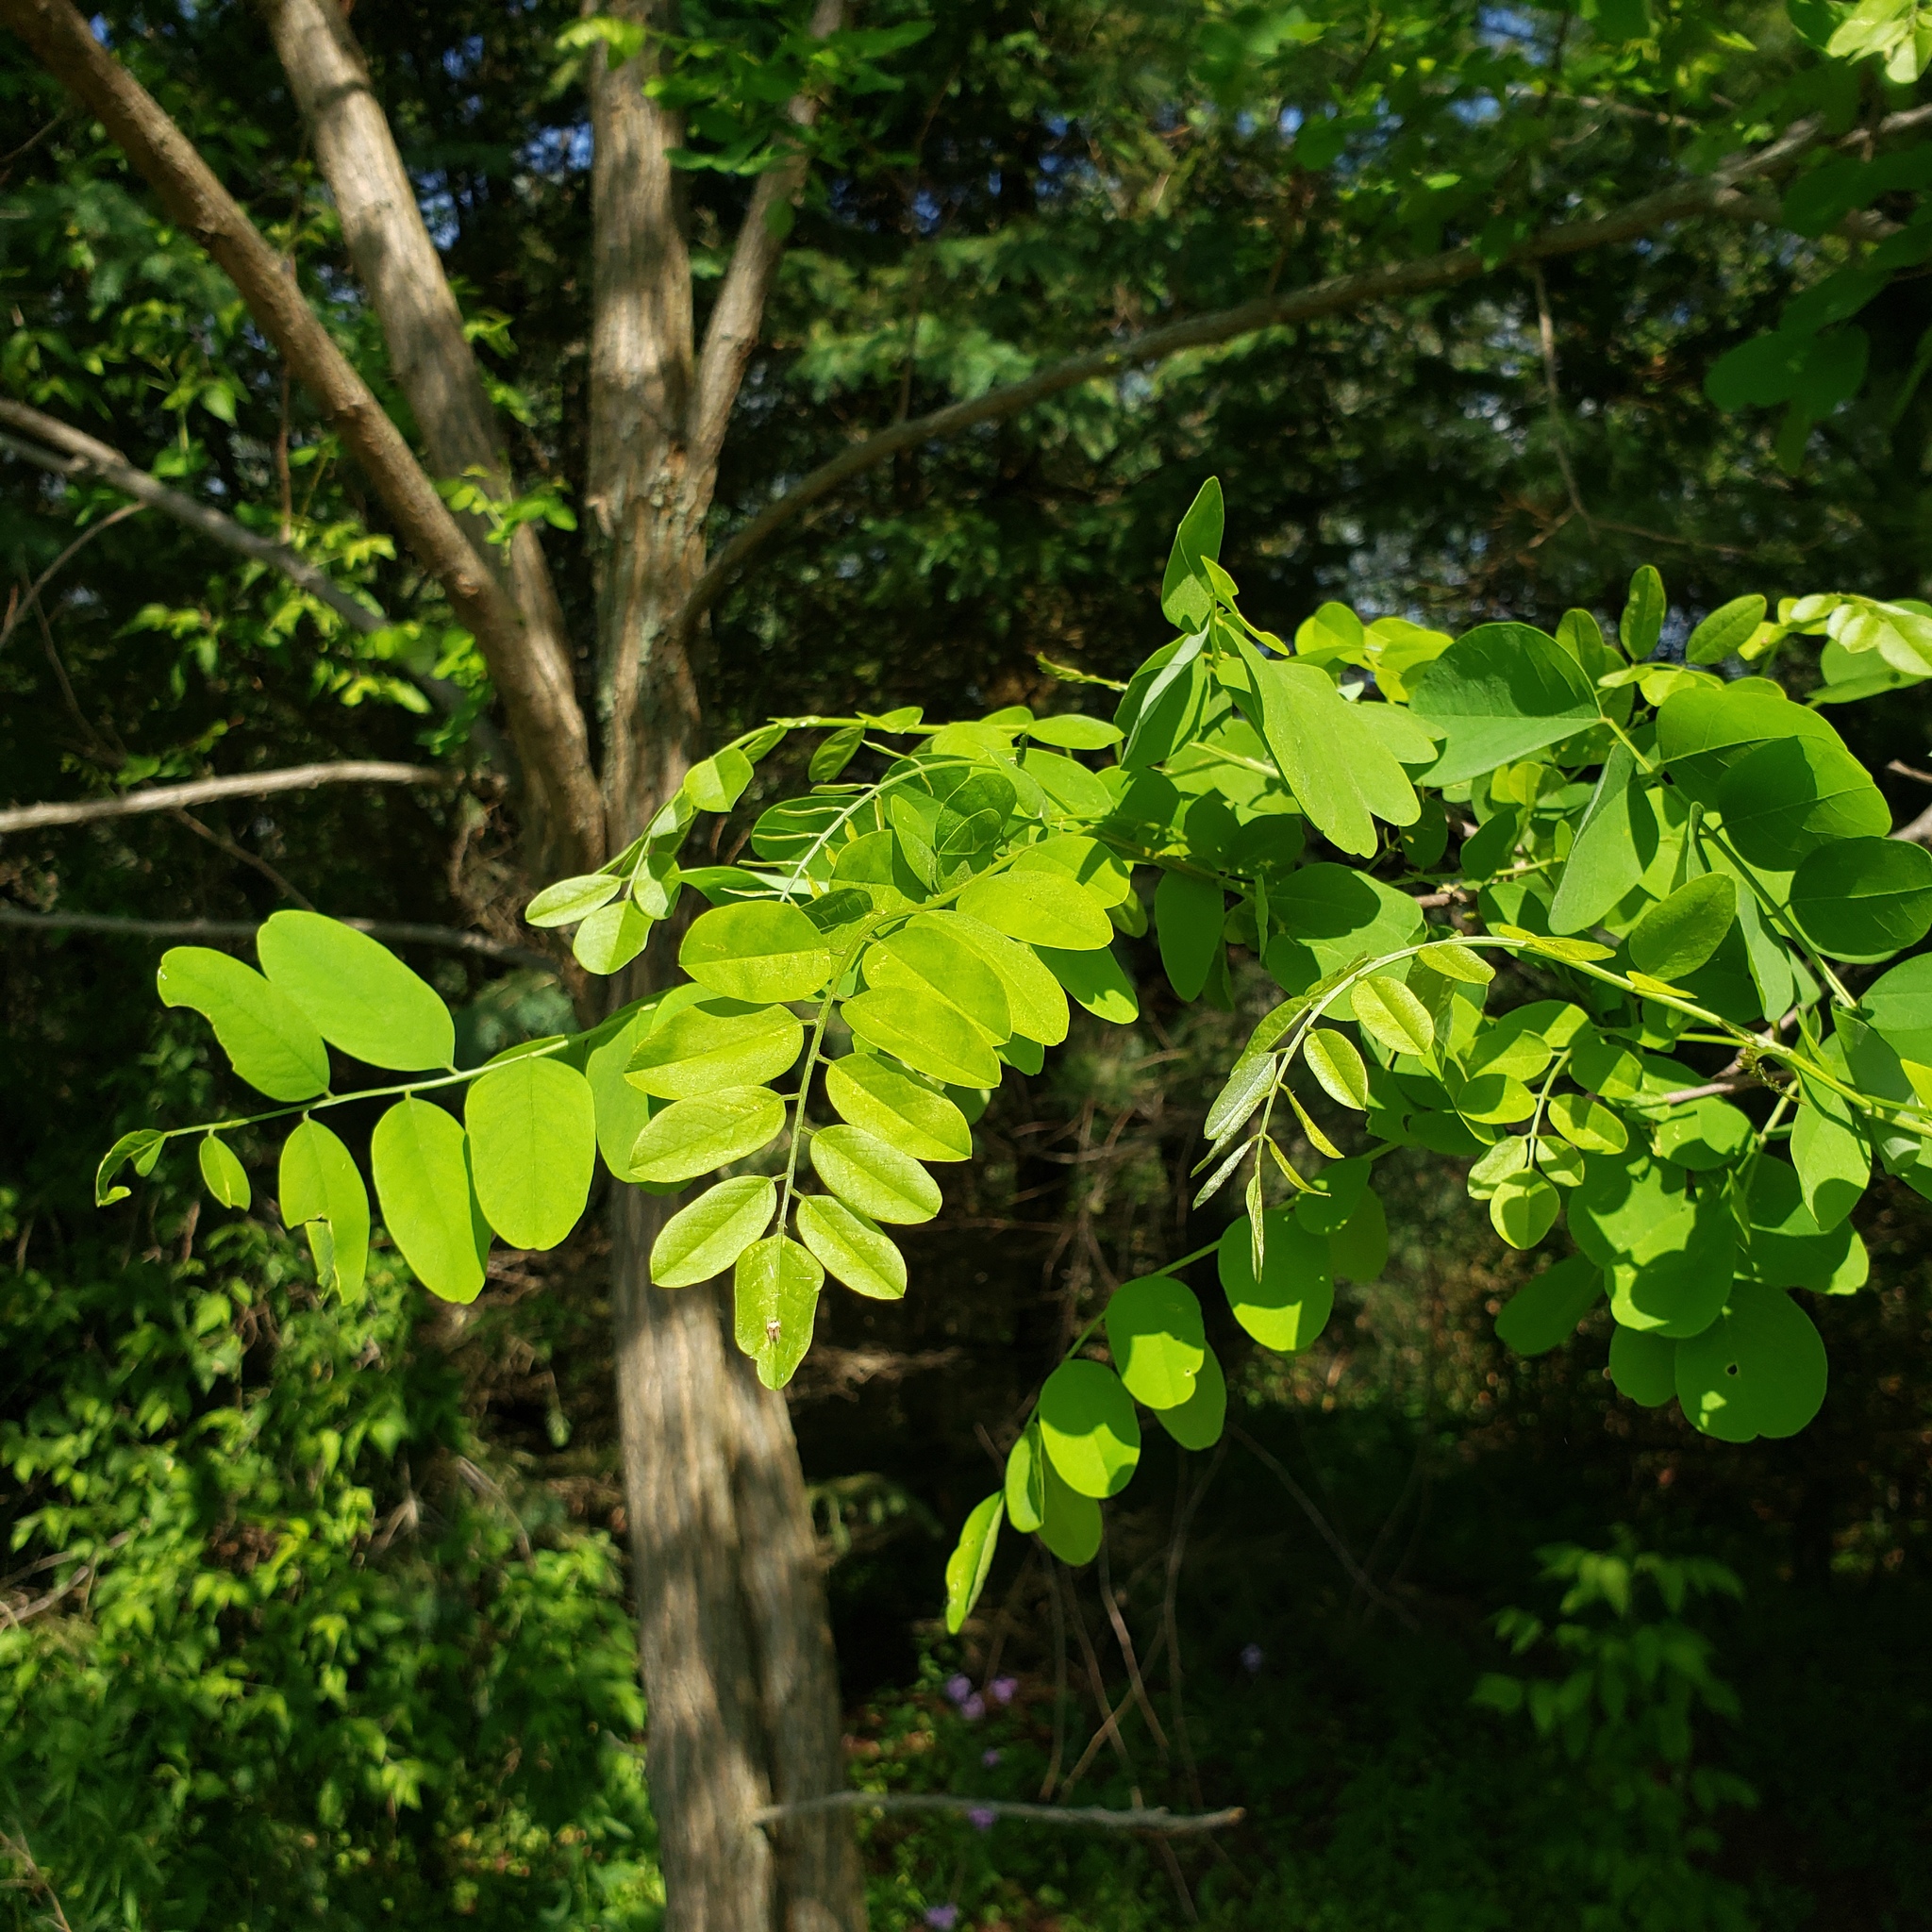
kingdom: Plantae
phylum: Tracheophyta
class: Magnoliopsida
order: Fabales
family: Fabaceae
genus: Robinia
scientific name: Robinia pseudoacacia
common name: Black locust
